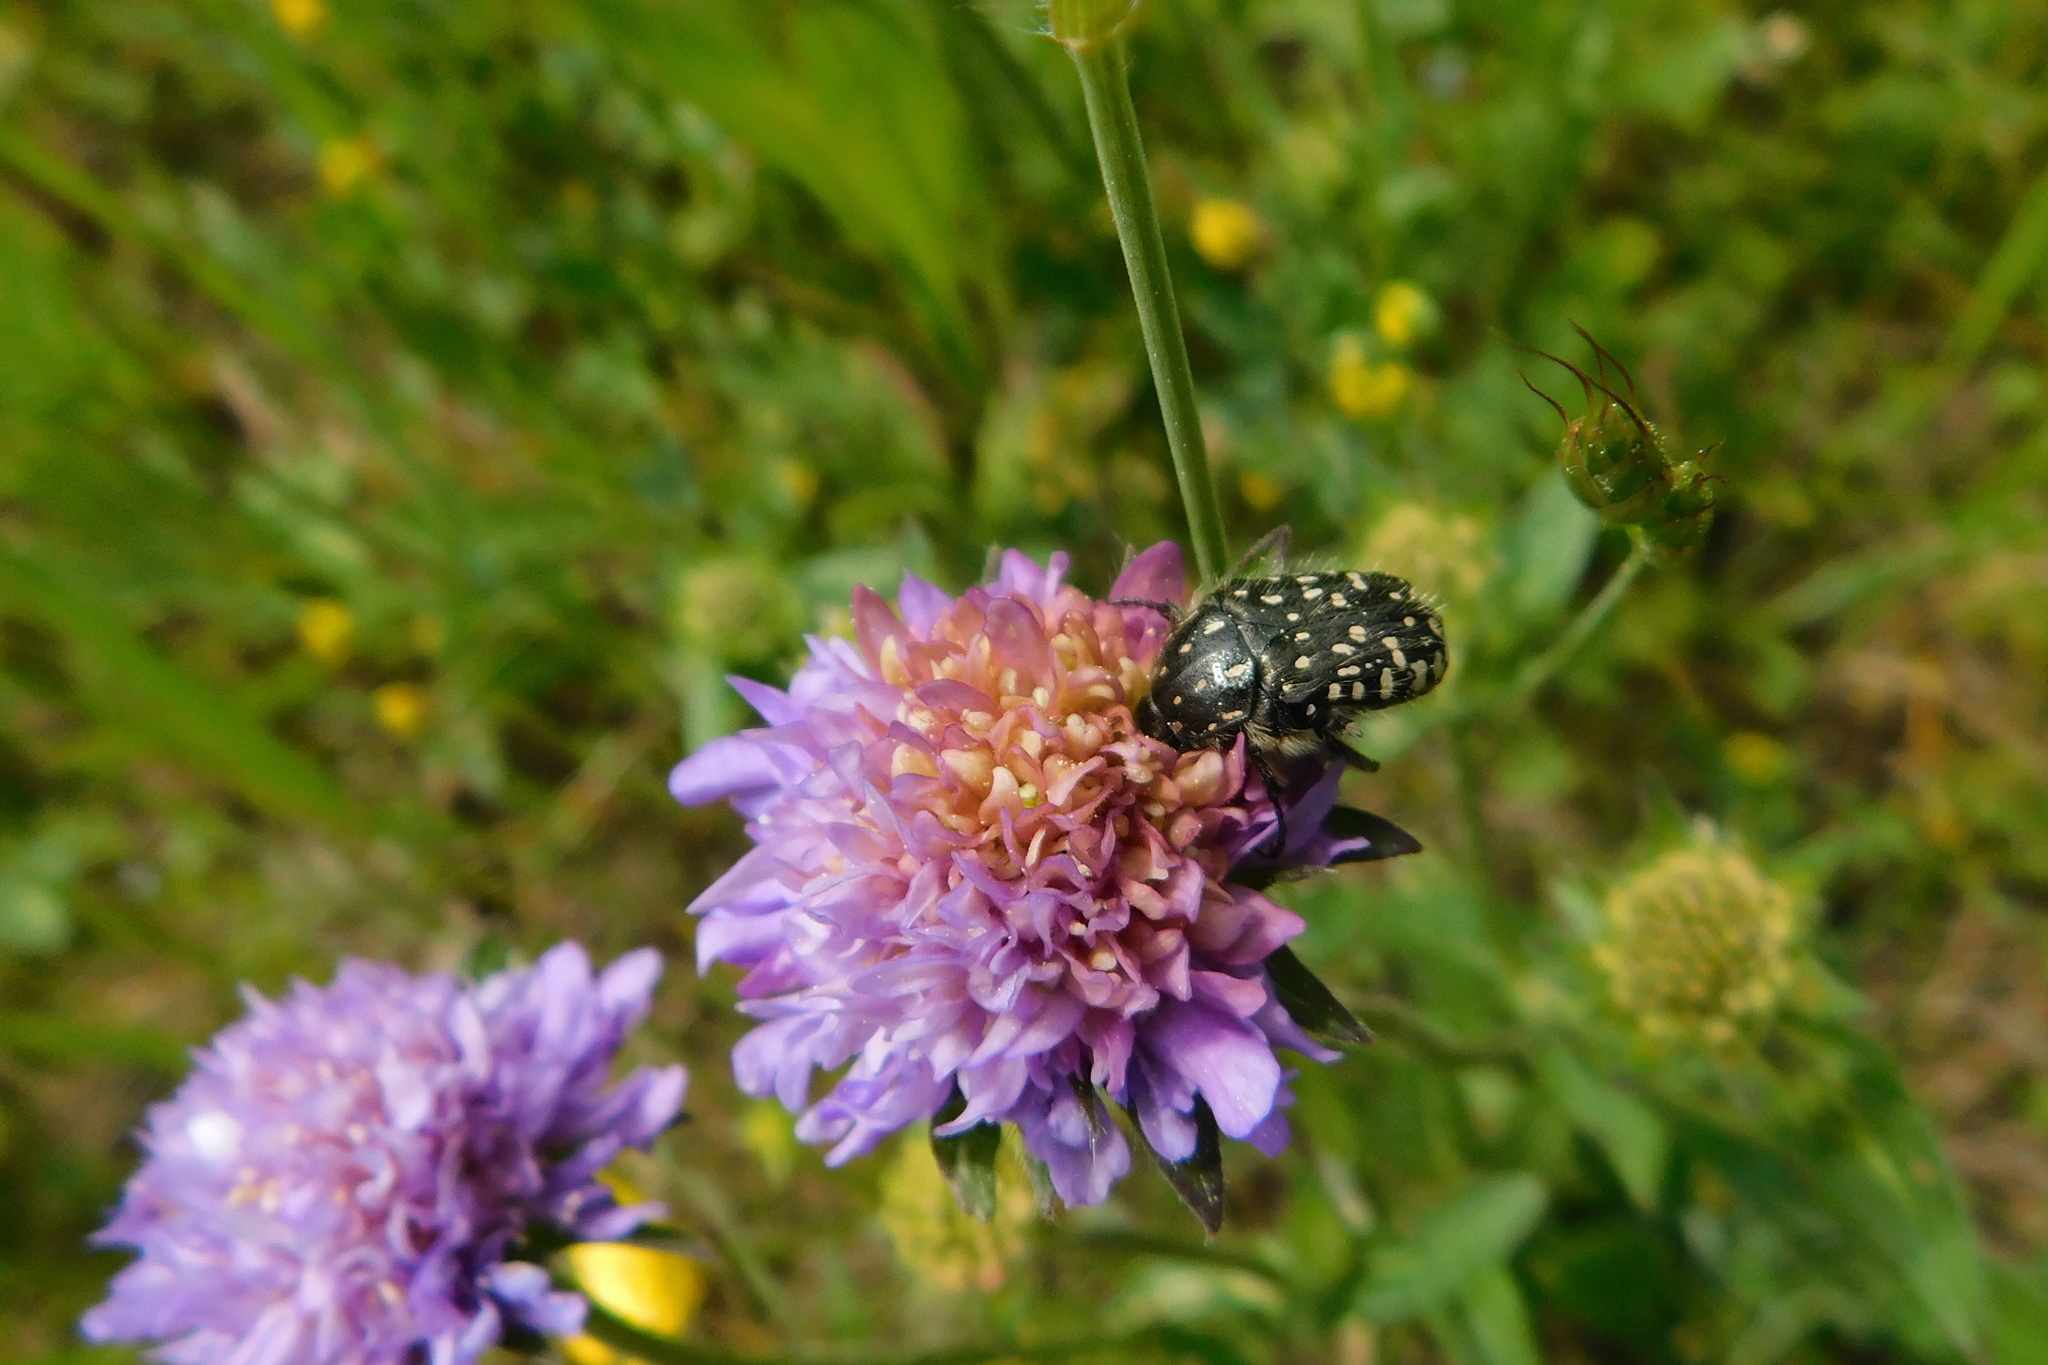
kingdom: Animalia
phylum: Arthropoda
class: Insecta
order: Coleoptera
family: Scarabaeidae
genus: Oxythyrea
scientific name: Oxythyrea funesta
